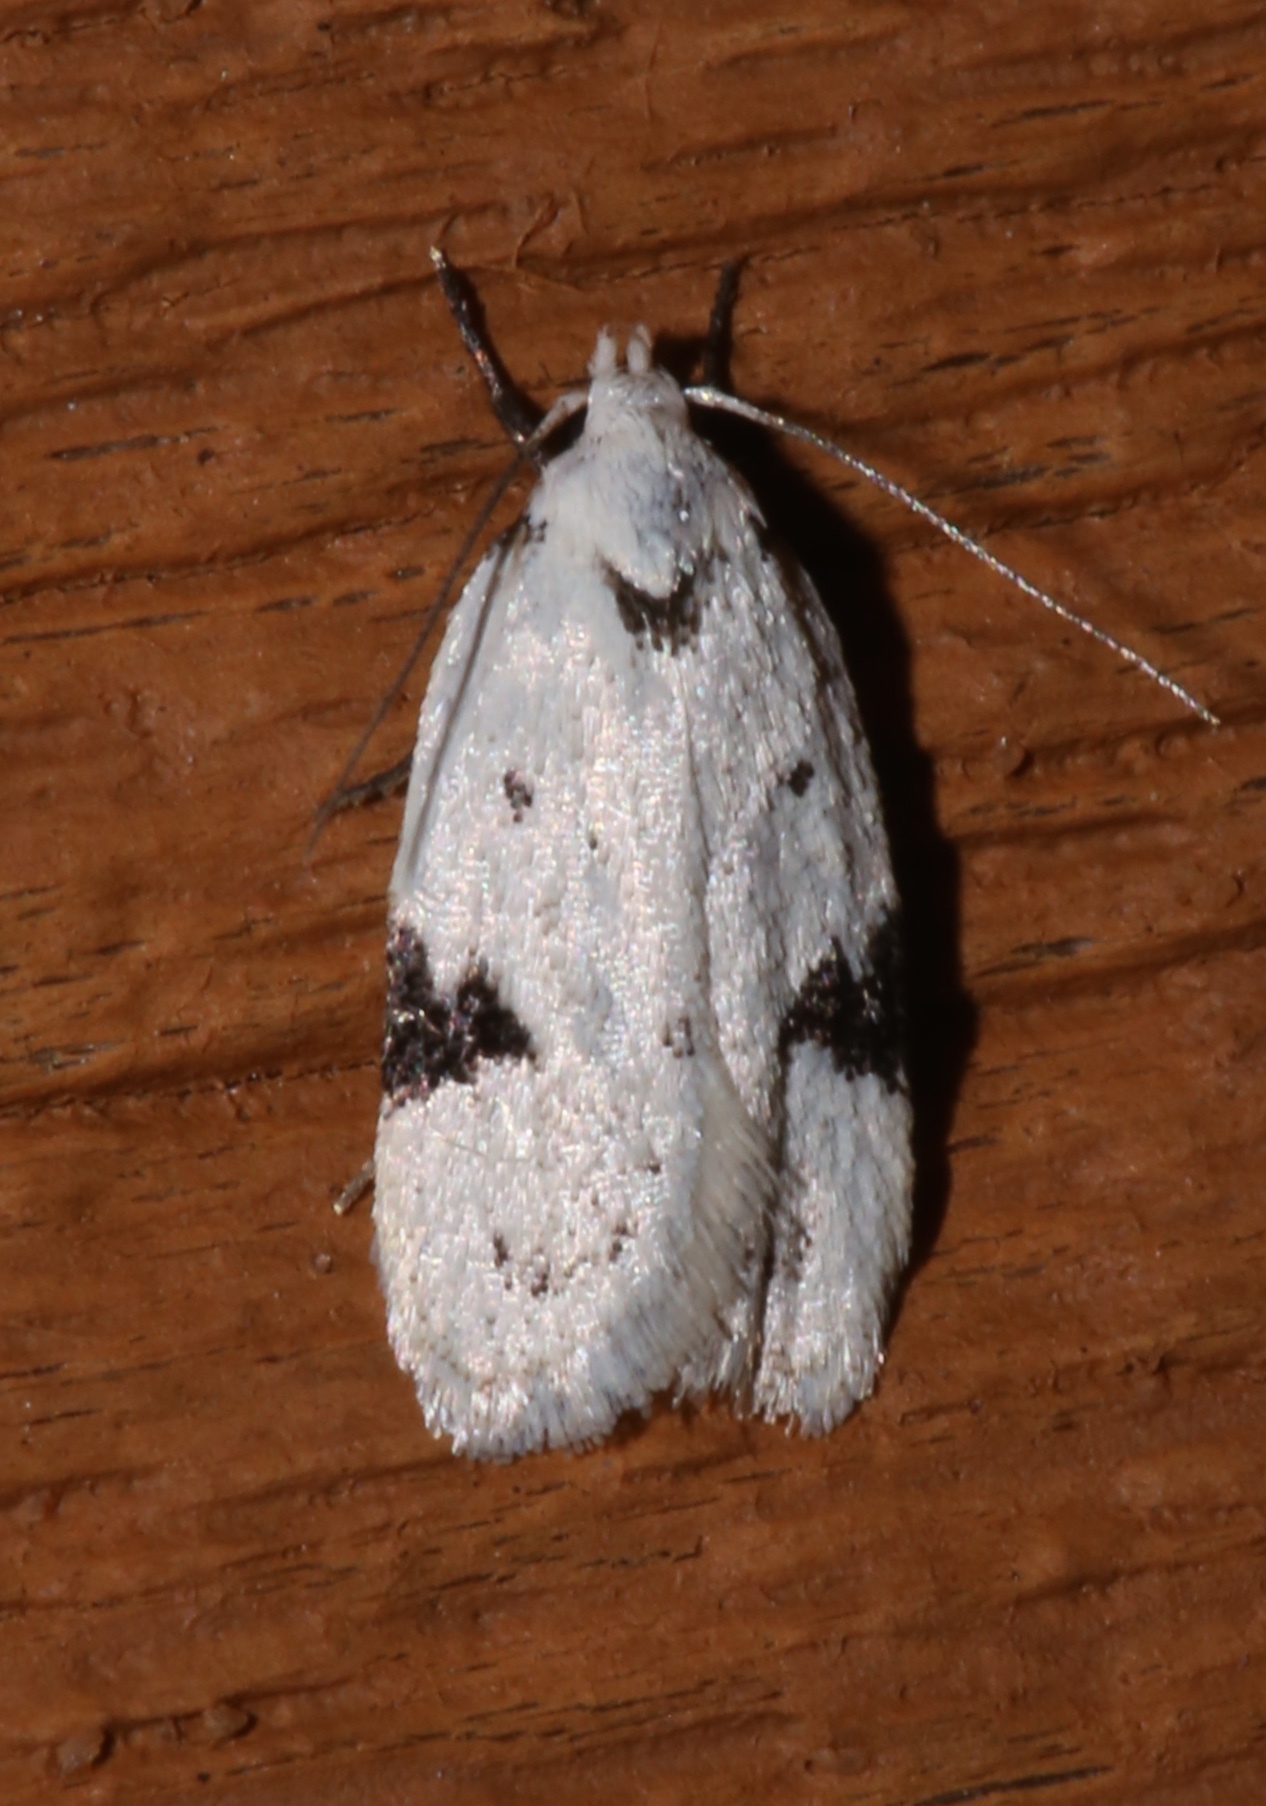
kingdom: Animalia
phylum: Arthropoda
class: Insecta
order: Lepidoptera
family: Oecophoridae
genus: Inga
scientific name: Inga sparsiciliella
